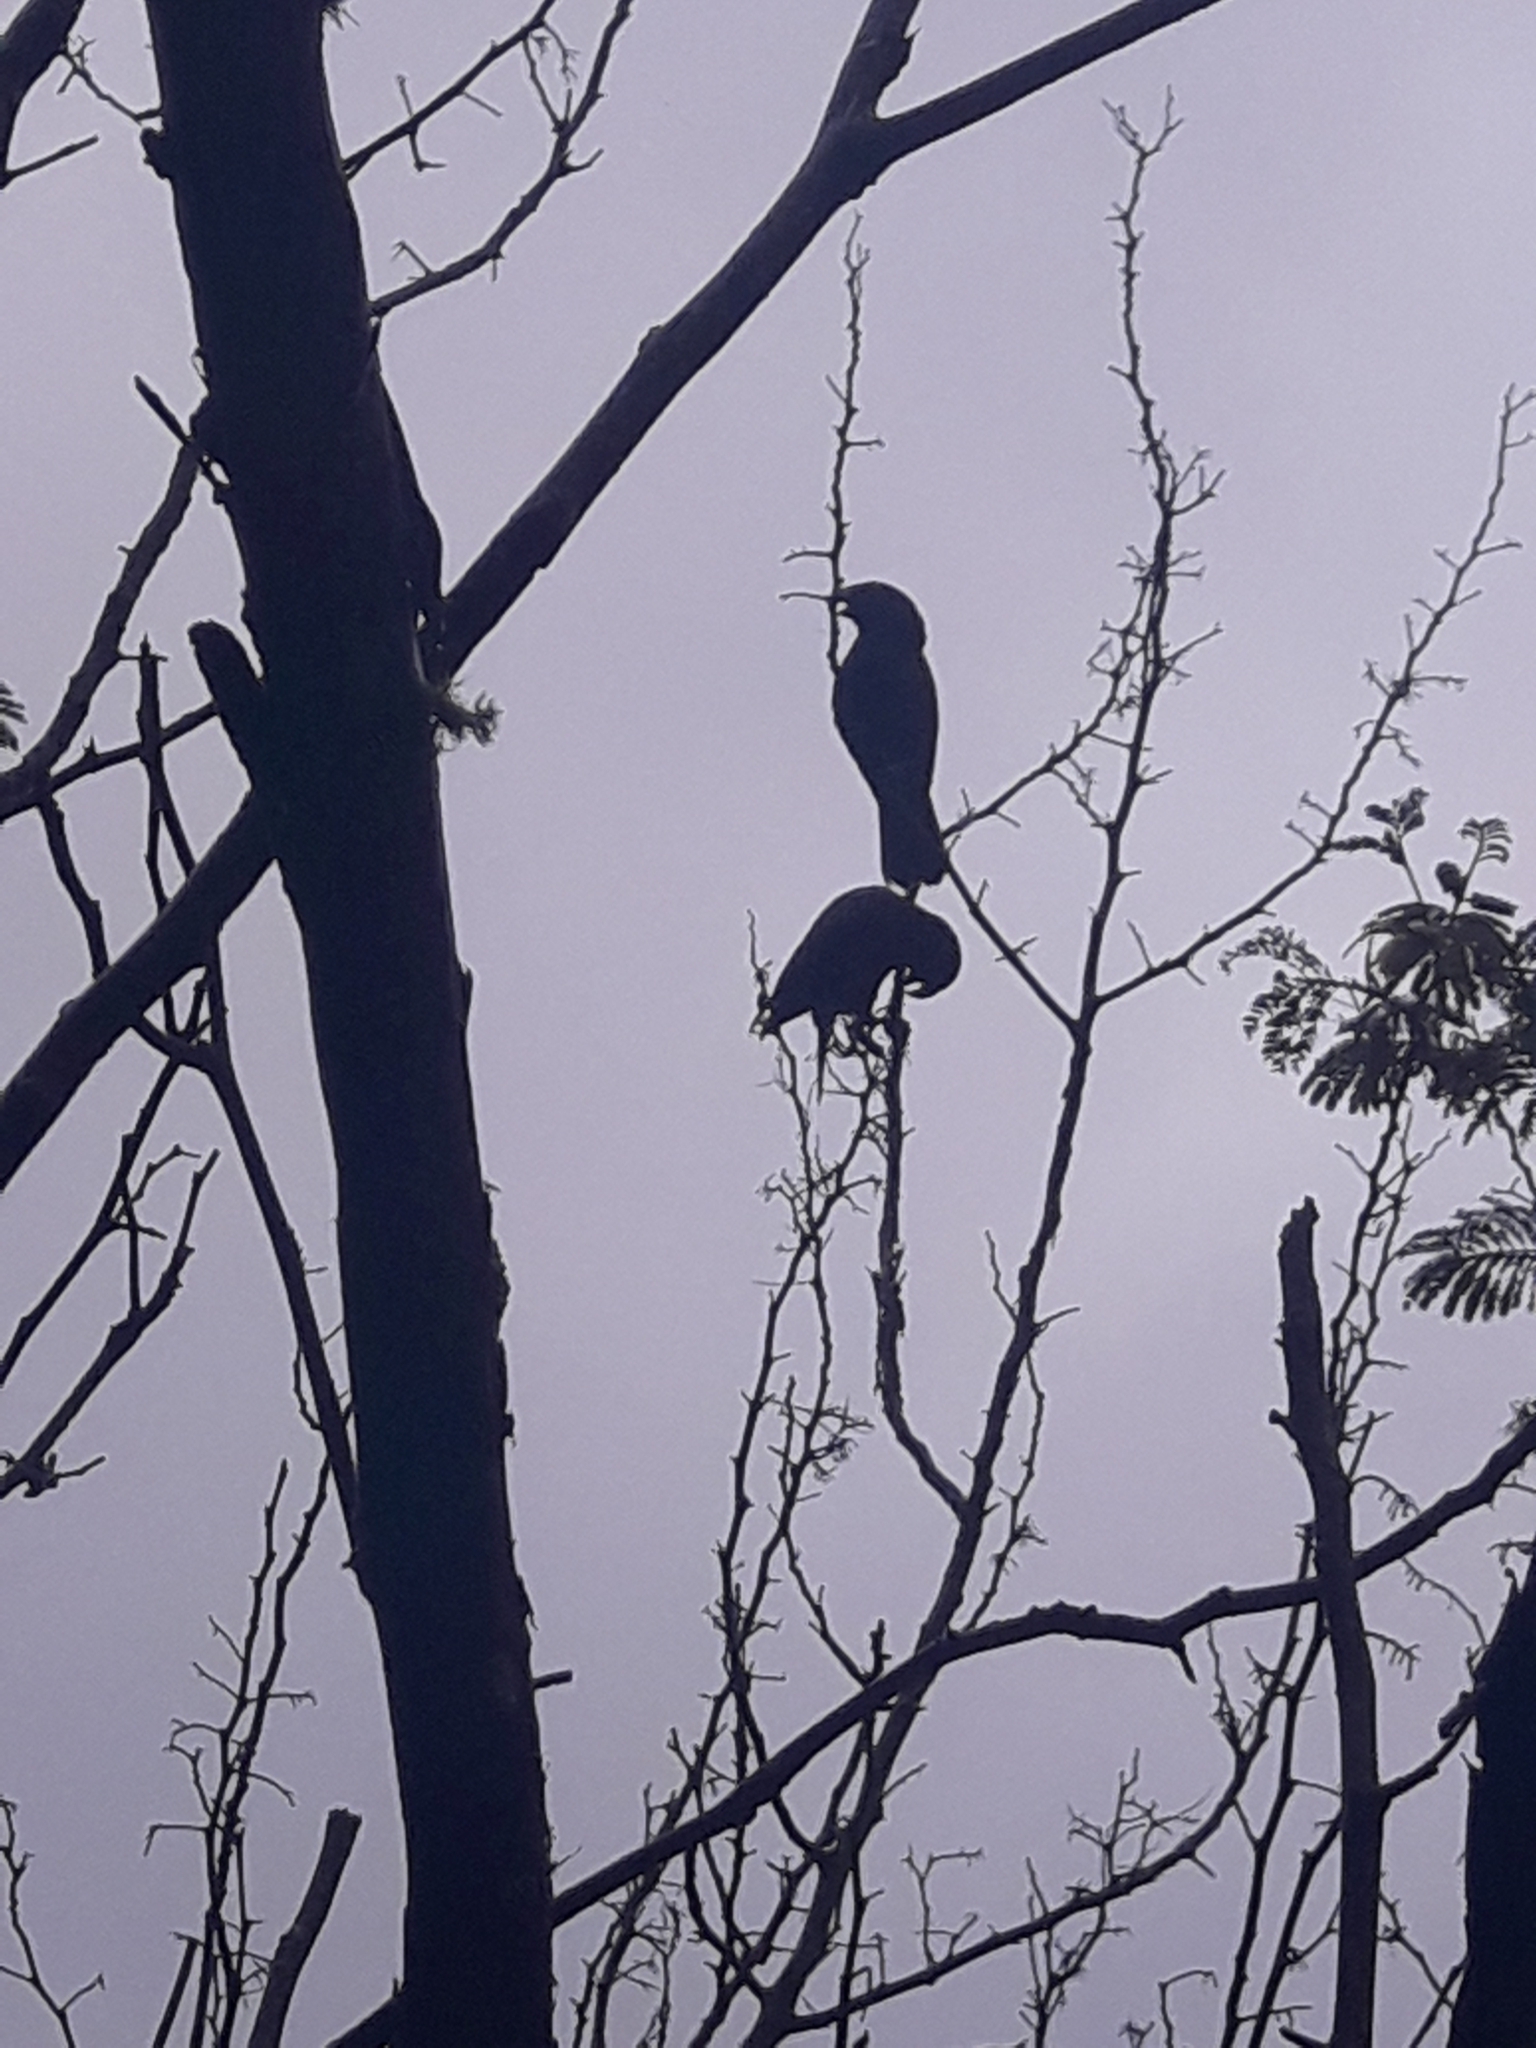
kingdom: Animalia
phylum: Chordata
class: Aves
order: Psittaciformes
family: Psittacidae
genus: Nestor
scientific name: Nestor meridionalis
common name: New zealand kaka
